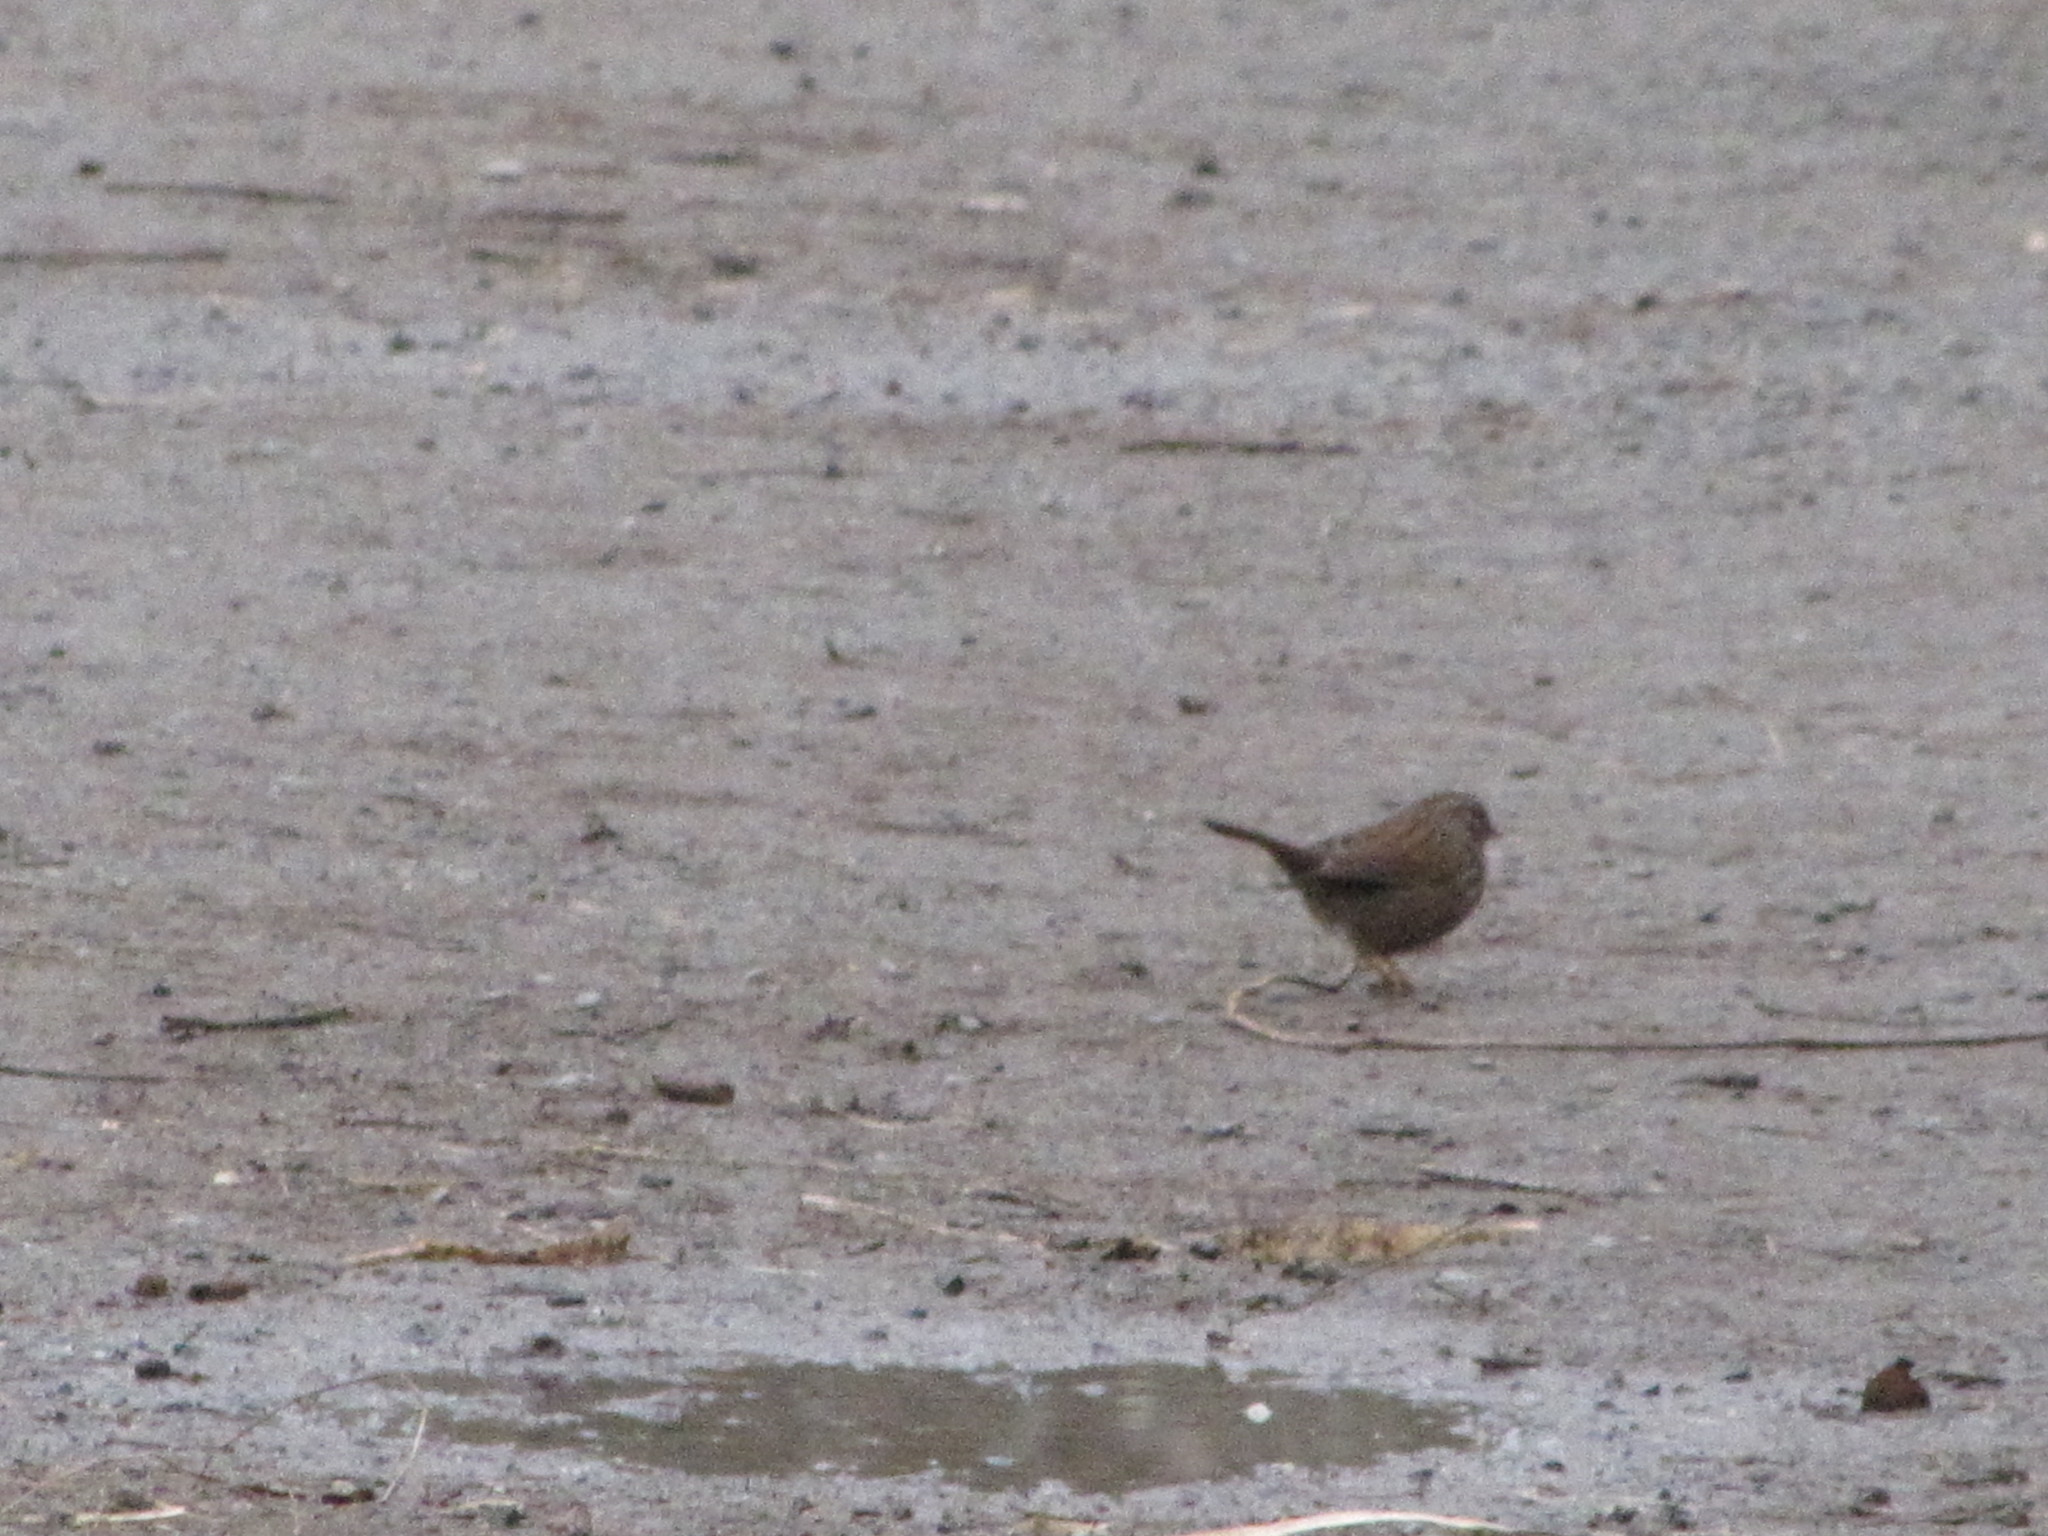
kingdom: Animalia
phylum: Chordata
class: Aves
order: Passeriformes
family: Passerellidae
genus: Melospiza
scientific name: Melospiza melodia
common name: Song sparrow
